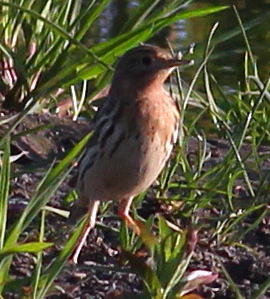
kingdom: Animalia
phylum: Chordata
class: Aves
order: Passeriformes
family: Motacillidae
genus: Anthus
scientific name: Anthus cervinus
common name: Red-throated pipit
